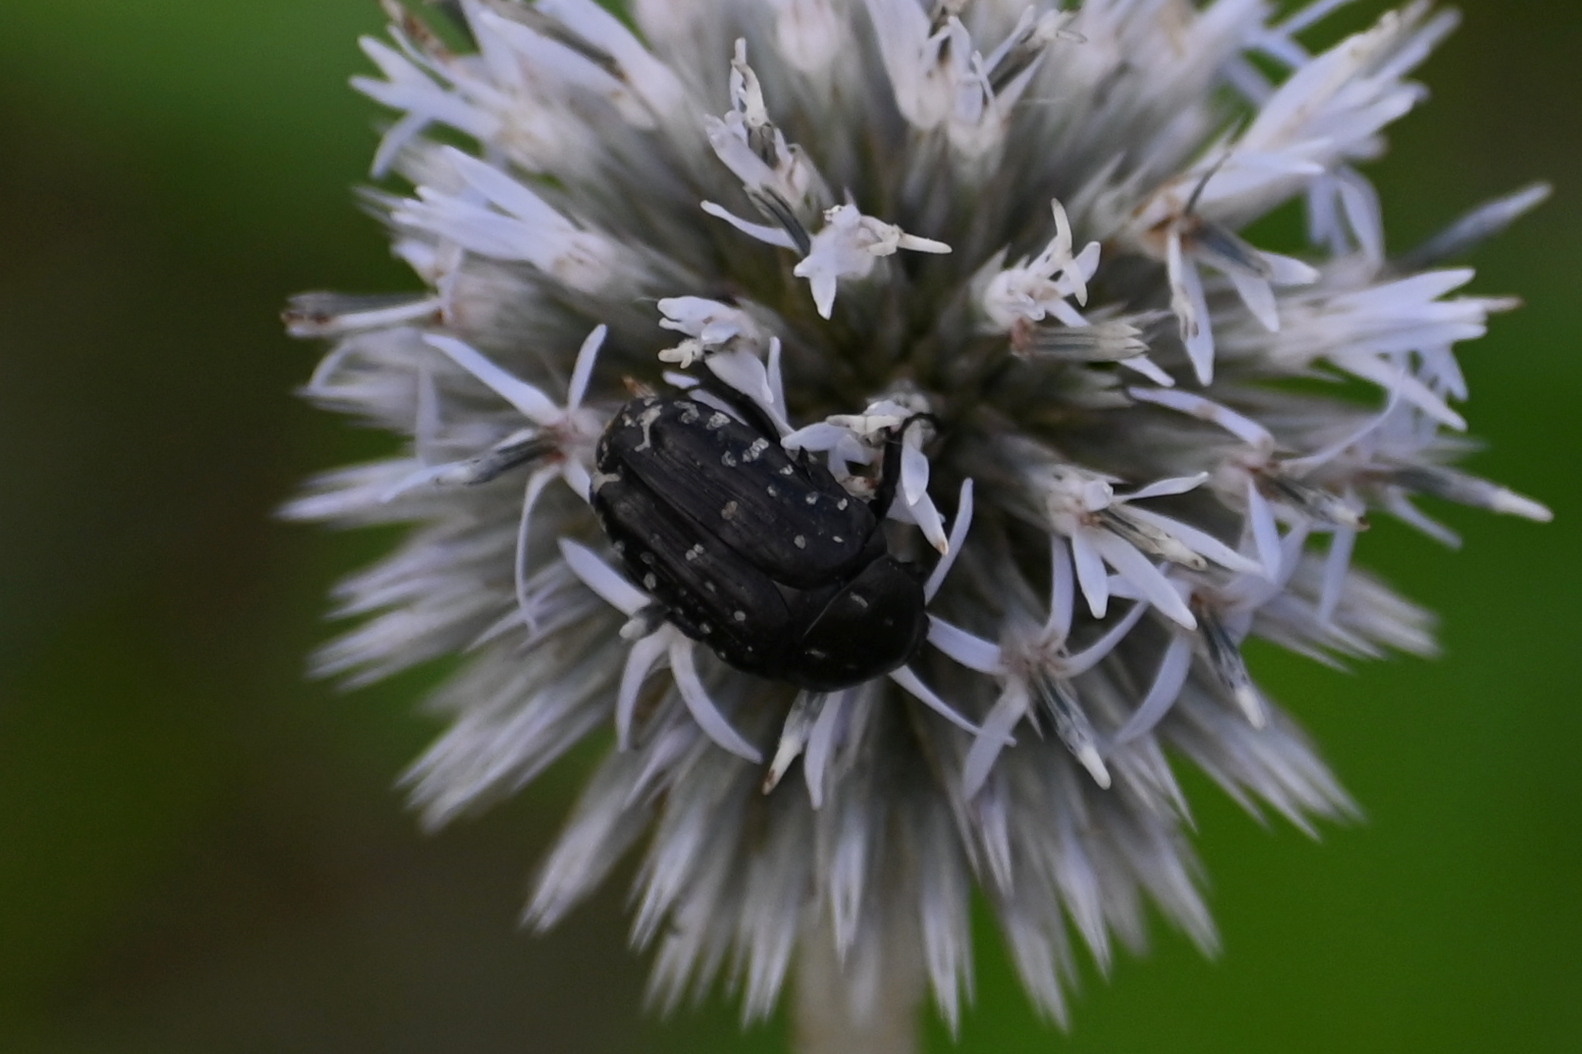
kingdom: Animalia
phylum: Arthropoda
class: Insecta
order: Coleoptera
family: Scarabaeidae
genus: Oxythyrea
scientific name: Oxythyrea funesta
